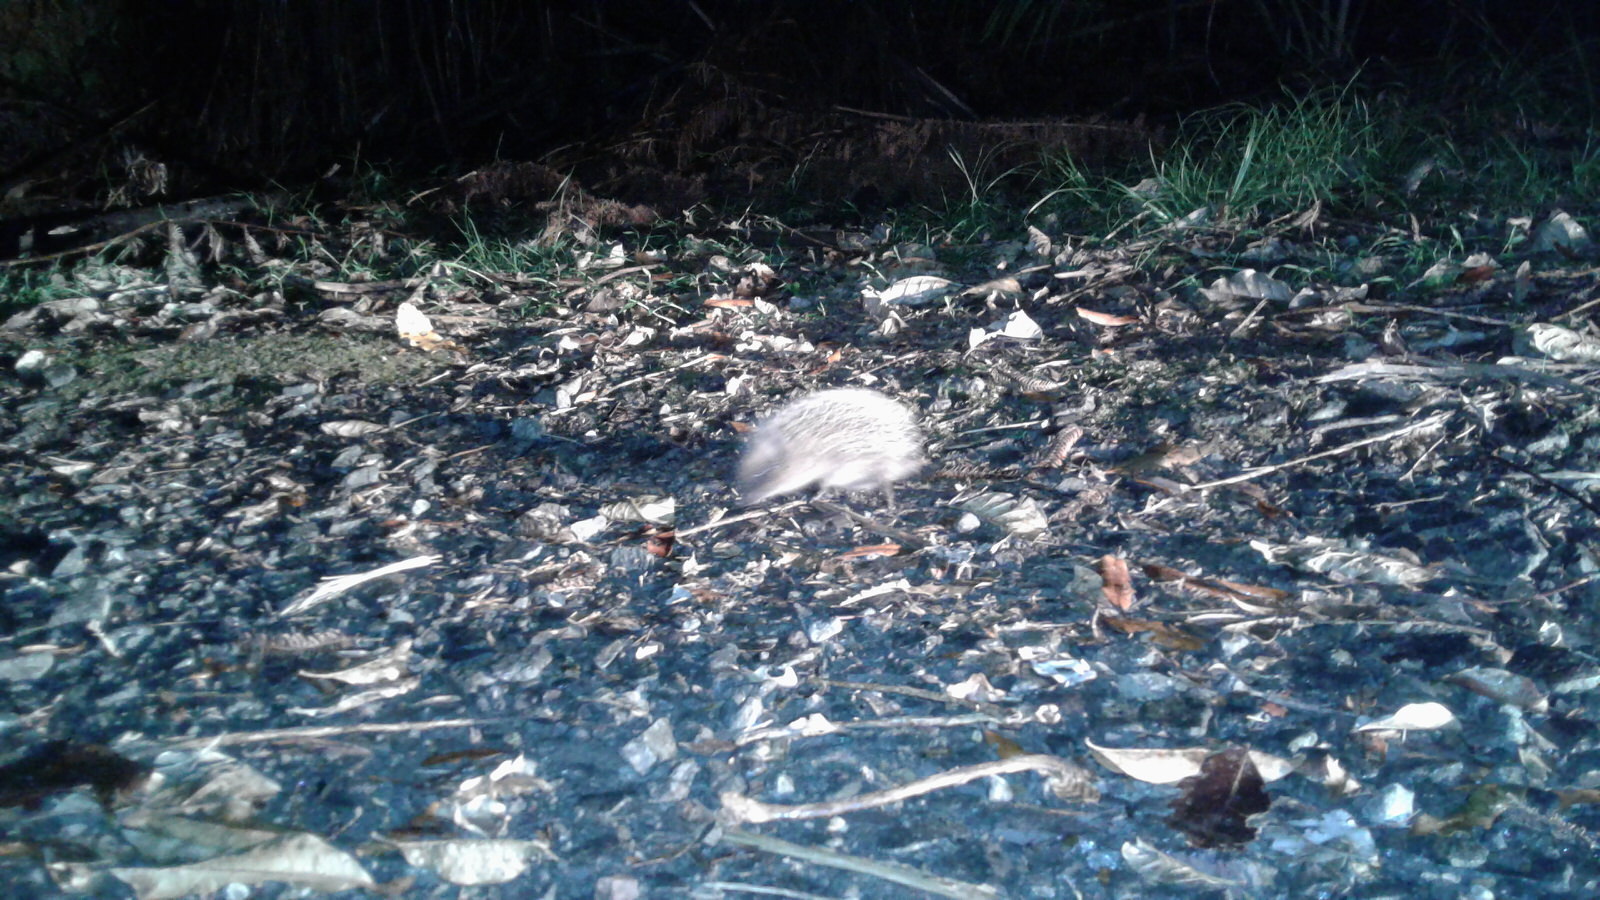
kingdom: Animalia
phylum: Chordata
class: Mammalia
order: Erinaceomorpha
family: Erinaceidae
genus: Erinaceus
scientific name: Erinaceus europaeus
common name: West european hedgehog
